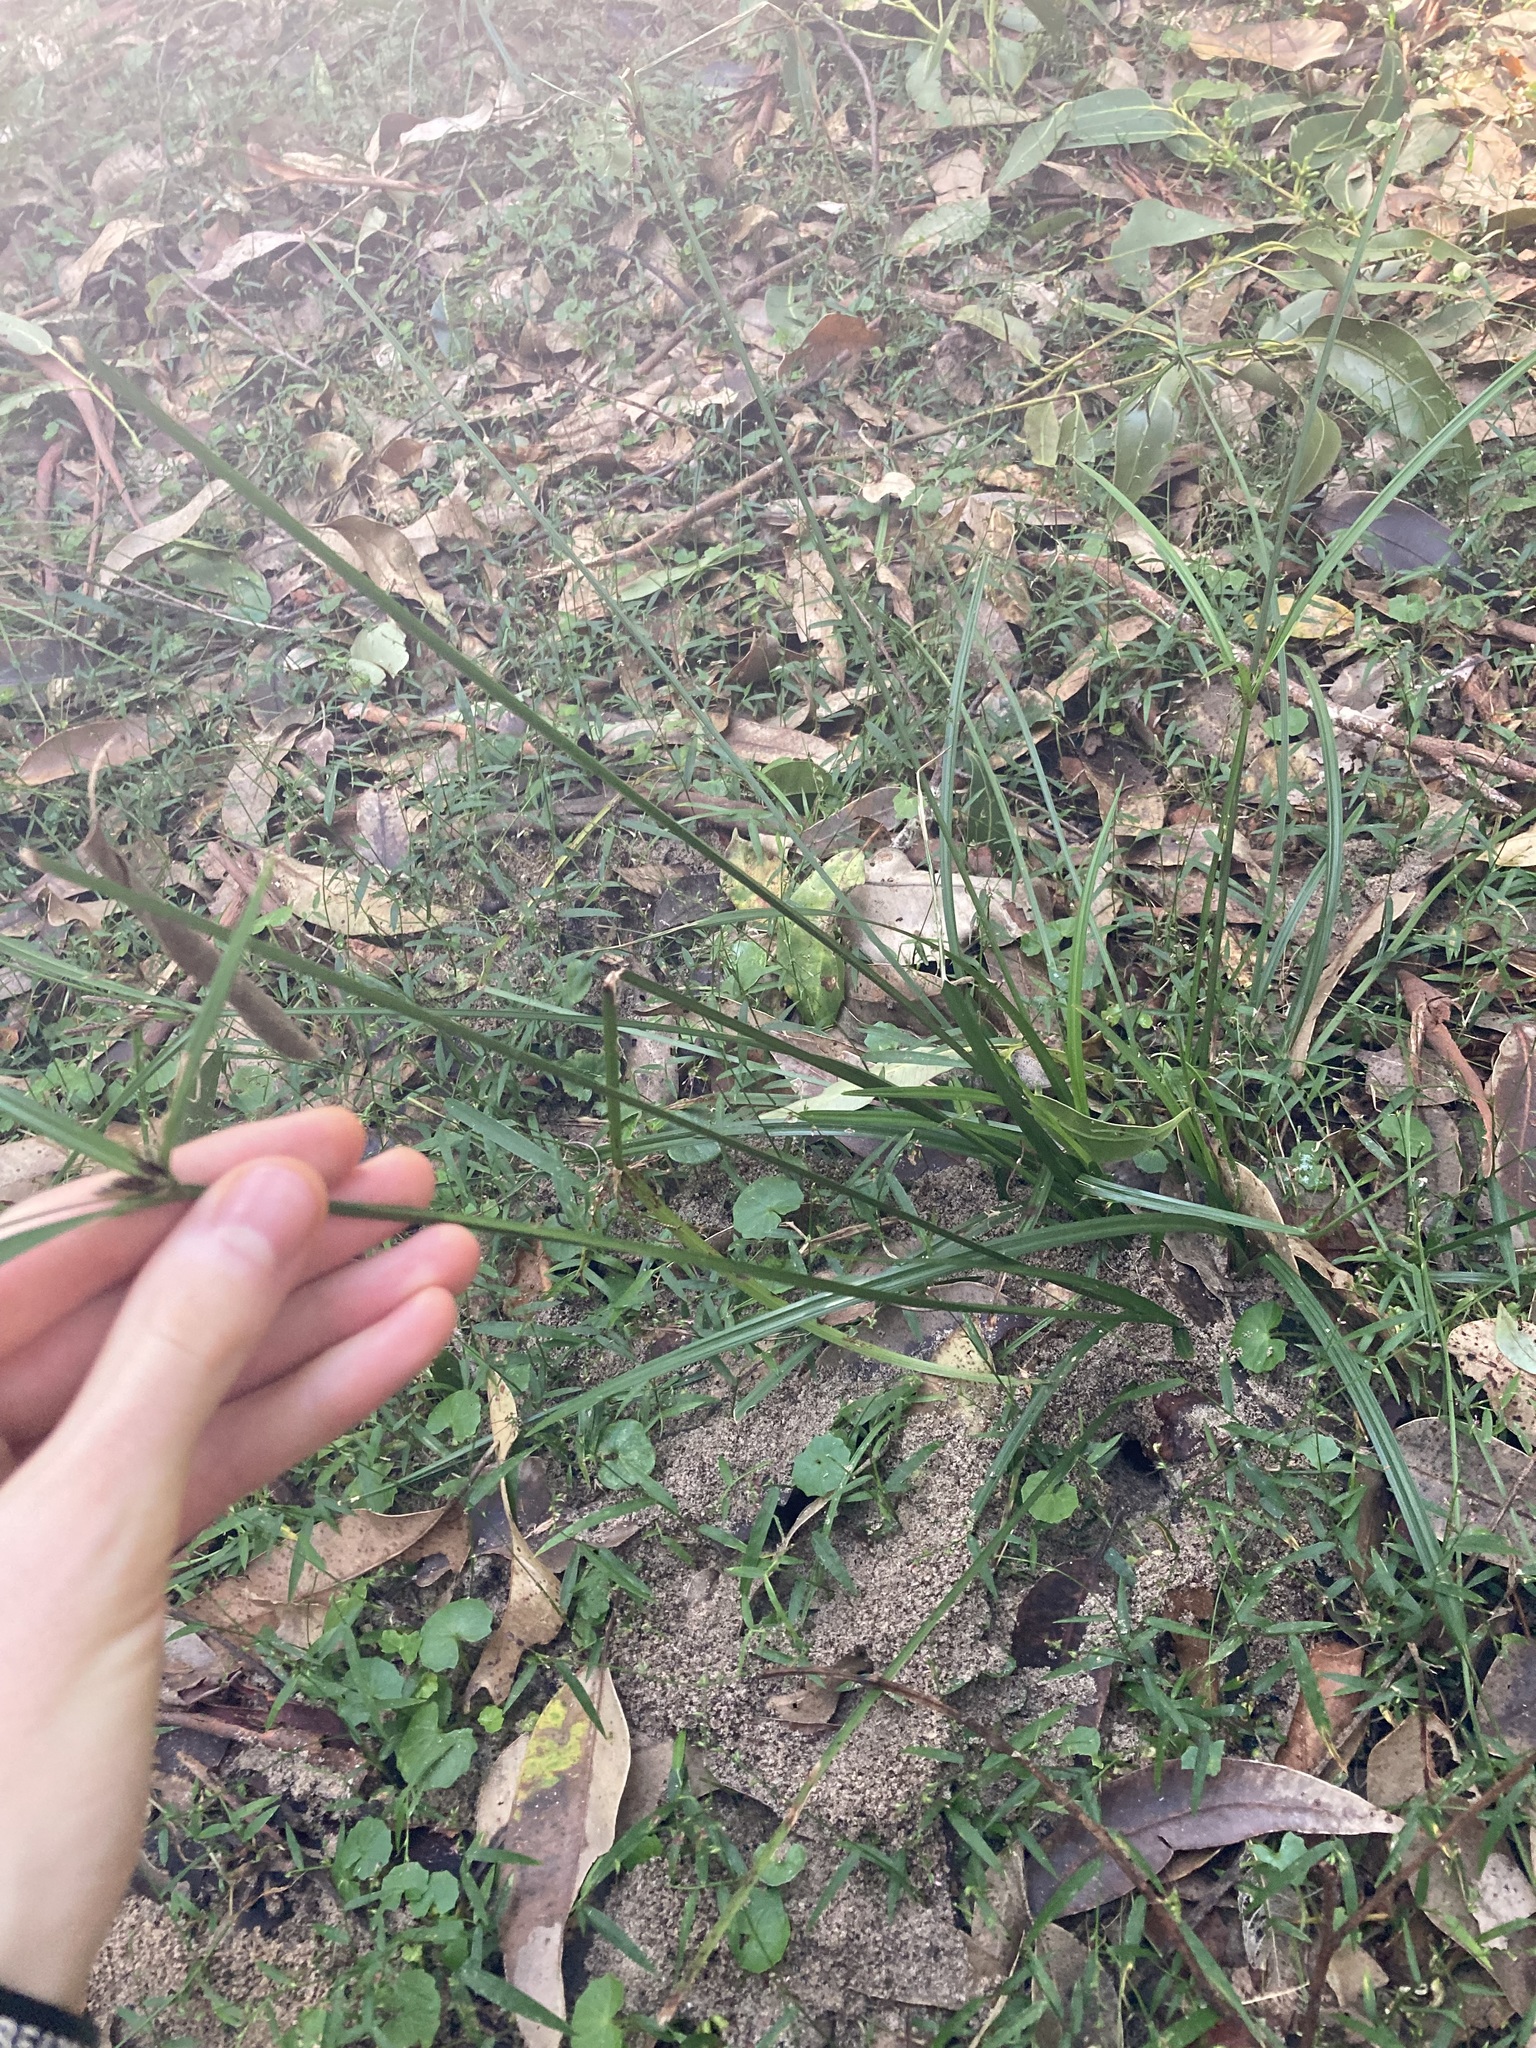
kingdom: Plantae
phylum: Tracheophyta
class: Liliopsida
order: Poales
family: Cyperaceae
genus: Cyperus
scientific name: Cyperus tetraphyllus
